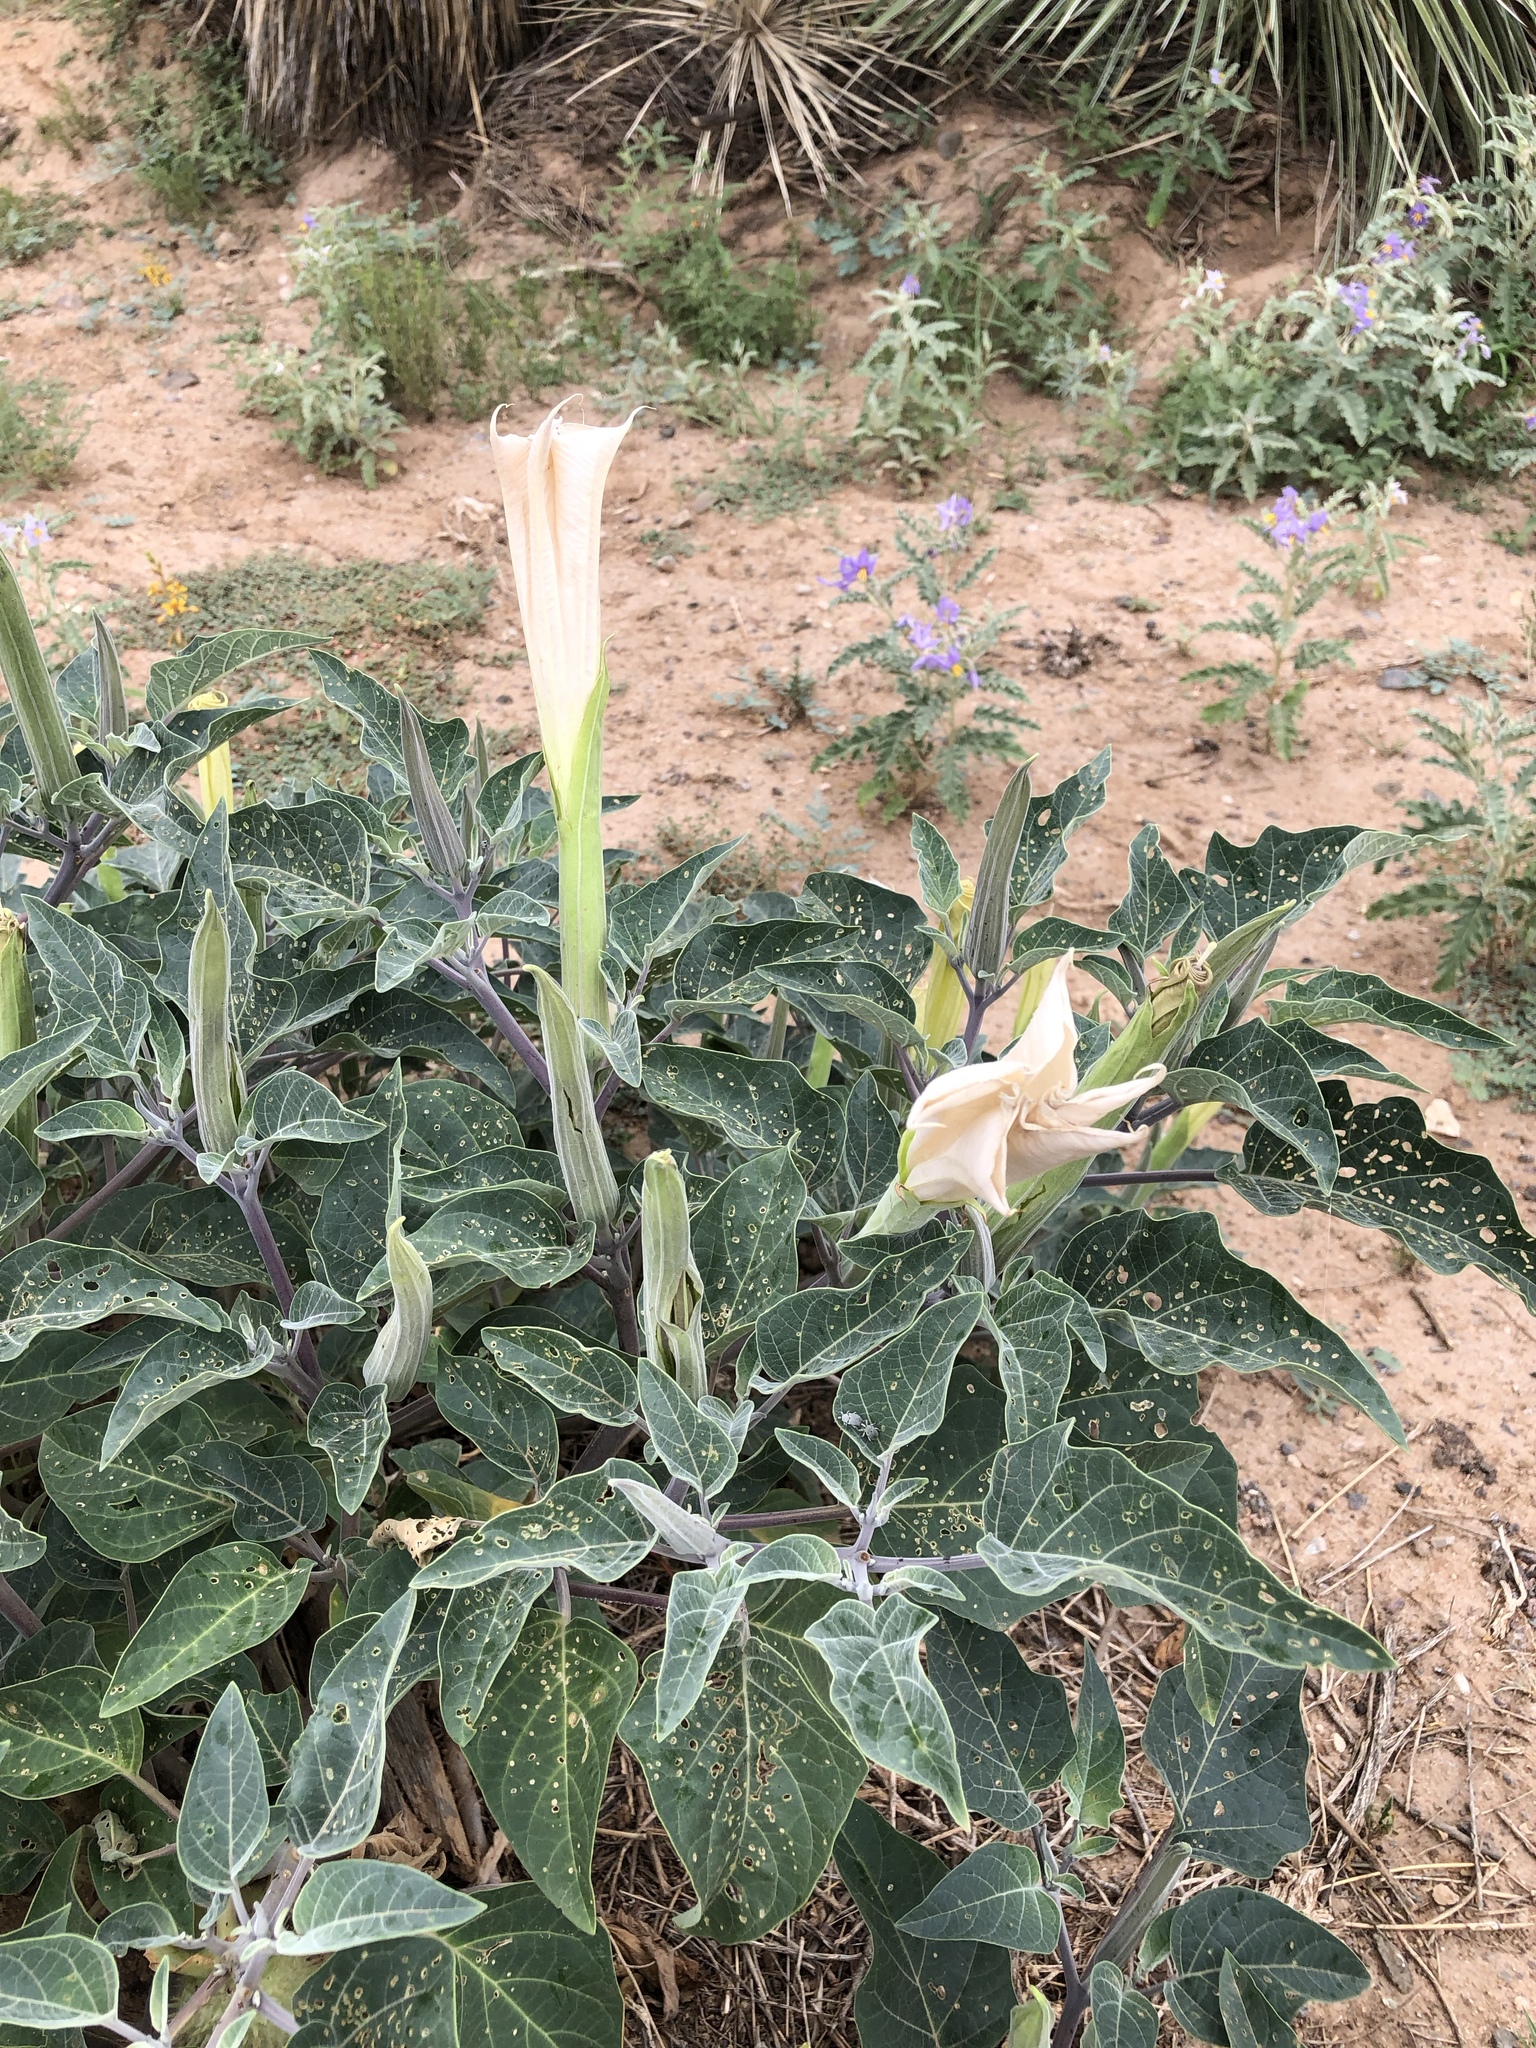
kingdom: Plantae
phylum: Tracheophyta
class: Magnoliopsida
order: Solanales
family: Solanaceae
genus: Datura
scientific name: Datura wrightii
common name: Sacred thorn-apple
